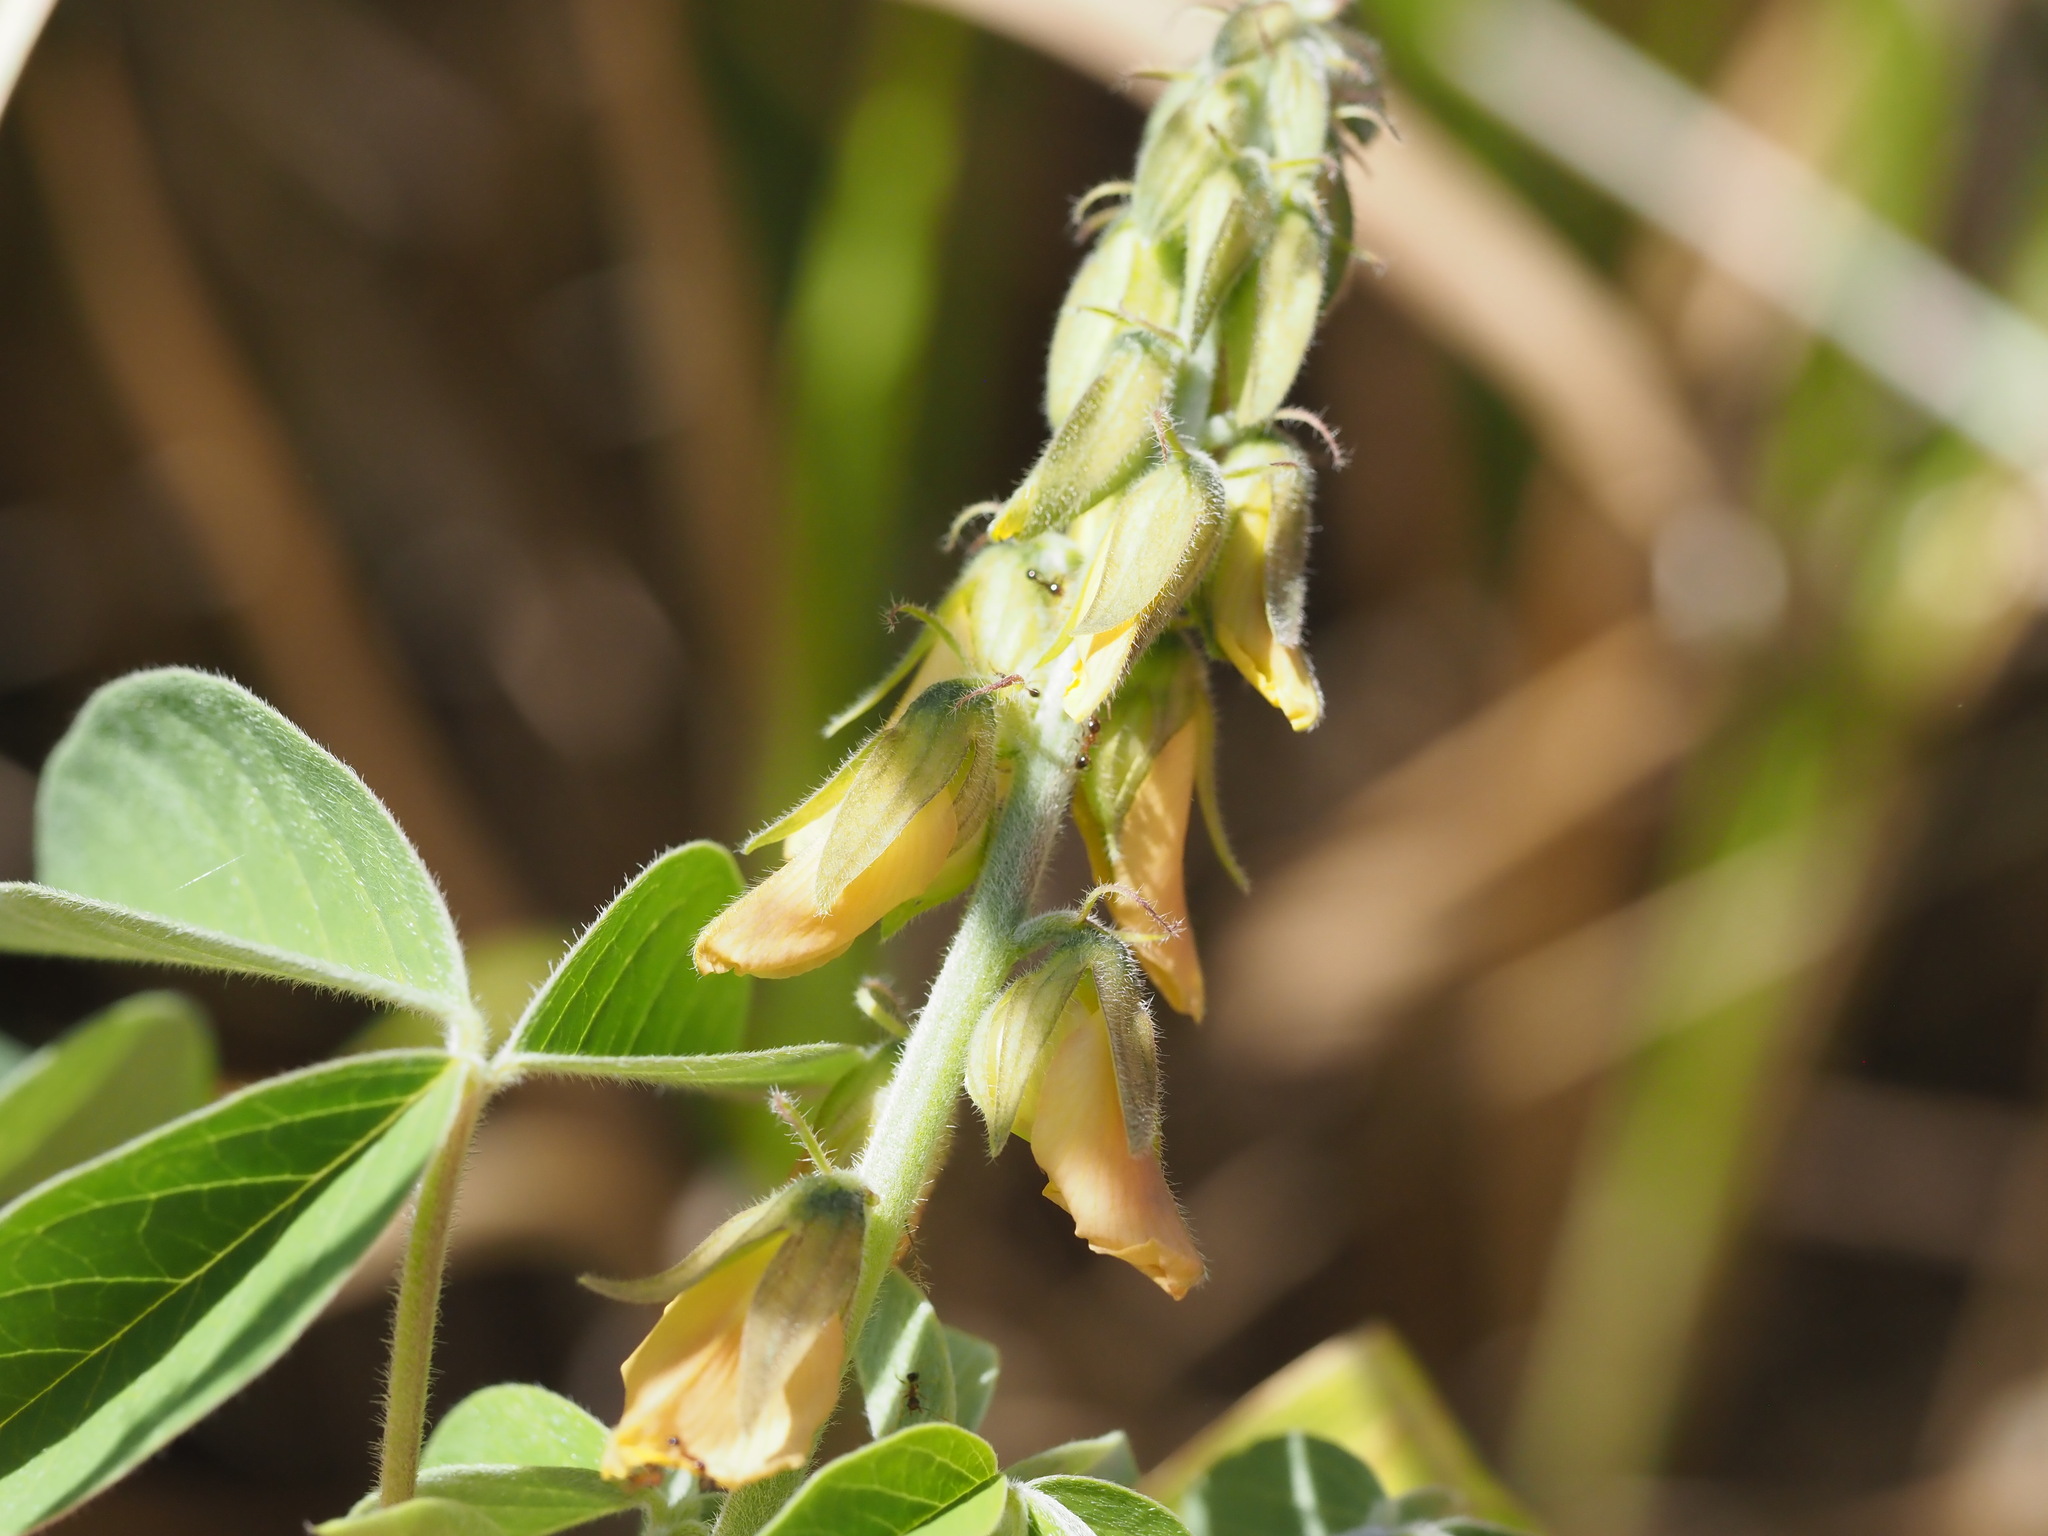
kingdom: Plantae
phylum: Tracheophyta
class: Magnoliopsida
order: Fabales
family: Fabaceae
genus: Crotalaria
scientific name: Crotalaria incana
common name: Shakeshake
